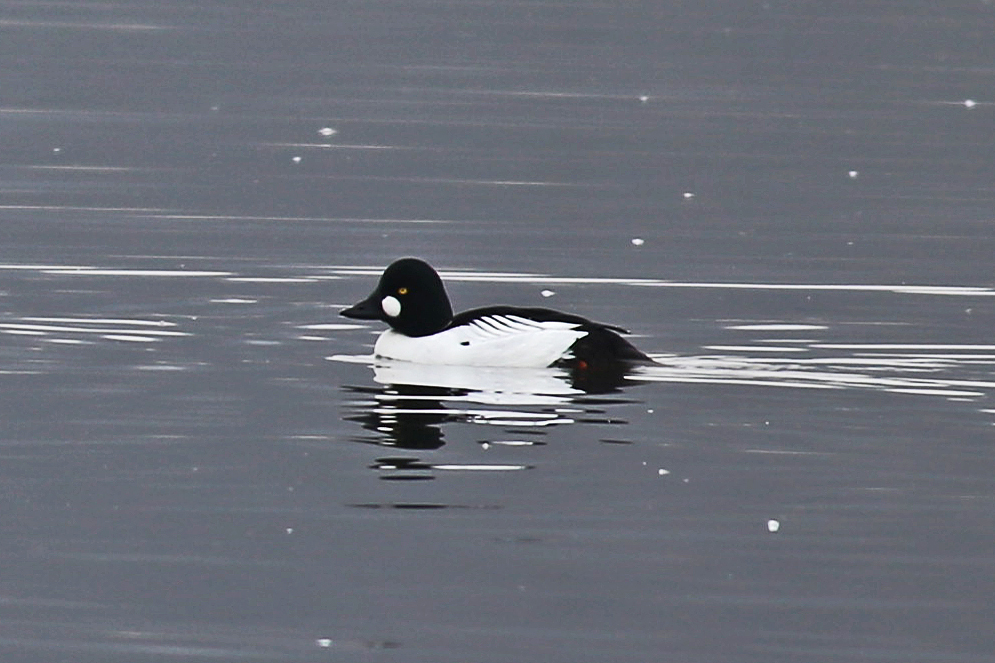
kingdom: Animalia
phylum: Chordata
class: Aves
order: Anseriformes
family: Anatidae
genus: Bucephala
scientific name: Bucephala clangula
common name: Common goldeneye
